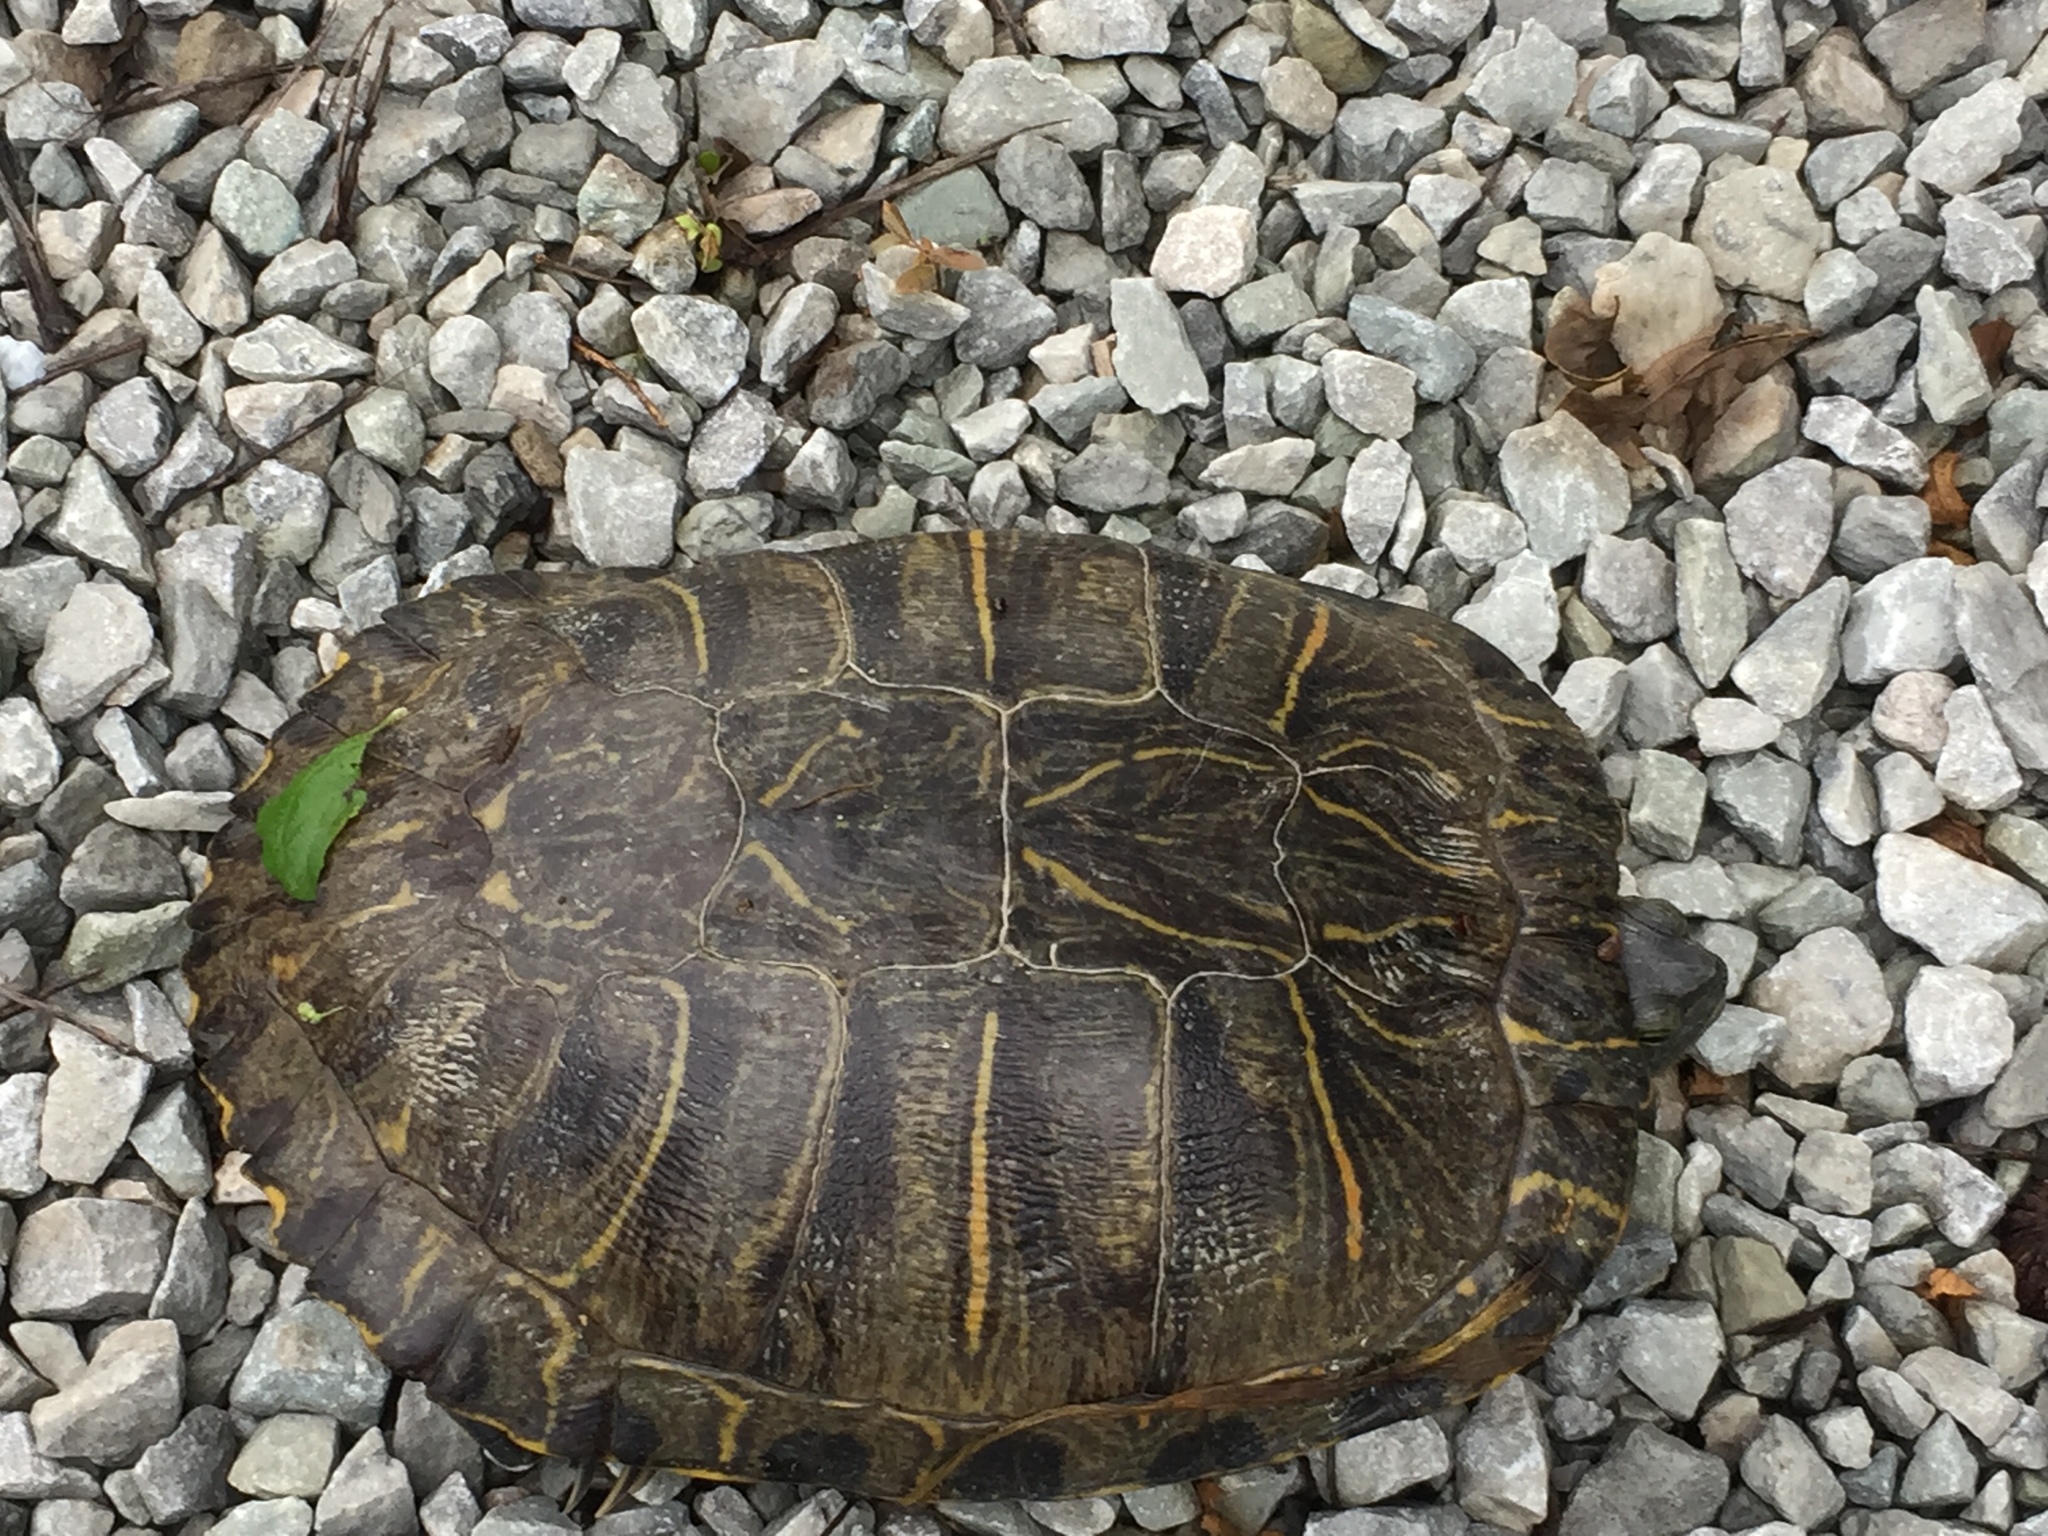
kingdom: Animalia
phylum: Chordata
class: Testudines
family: Emydidae
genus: Trachemys
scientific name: Trachemys scripta
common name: Slider
